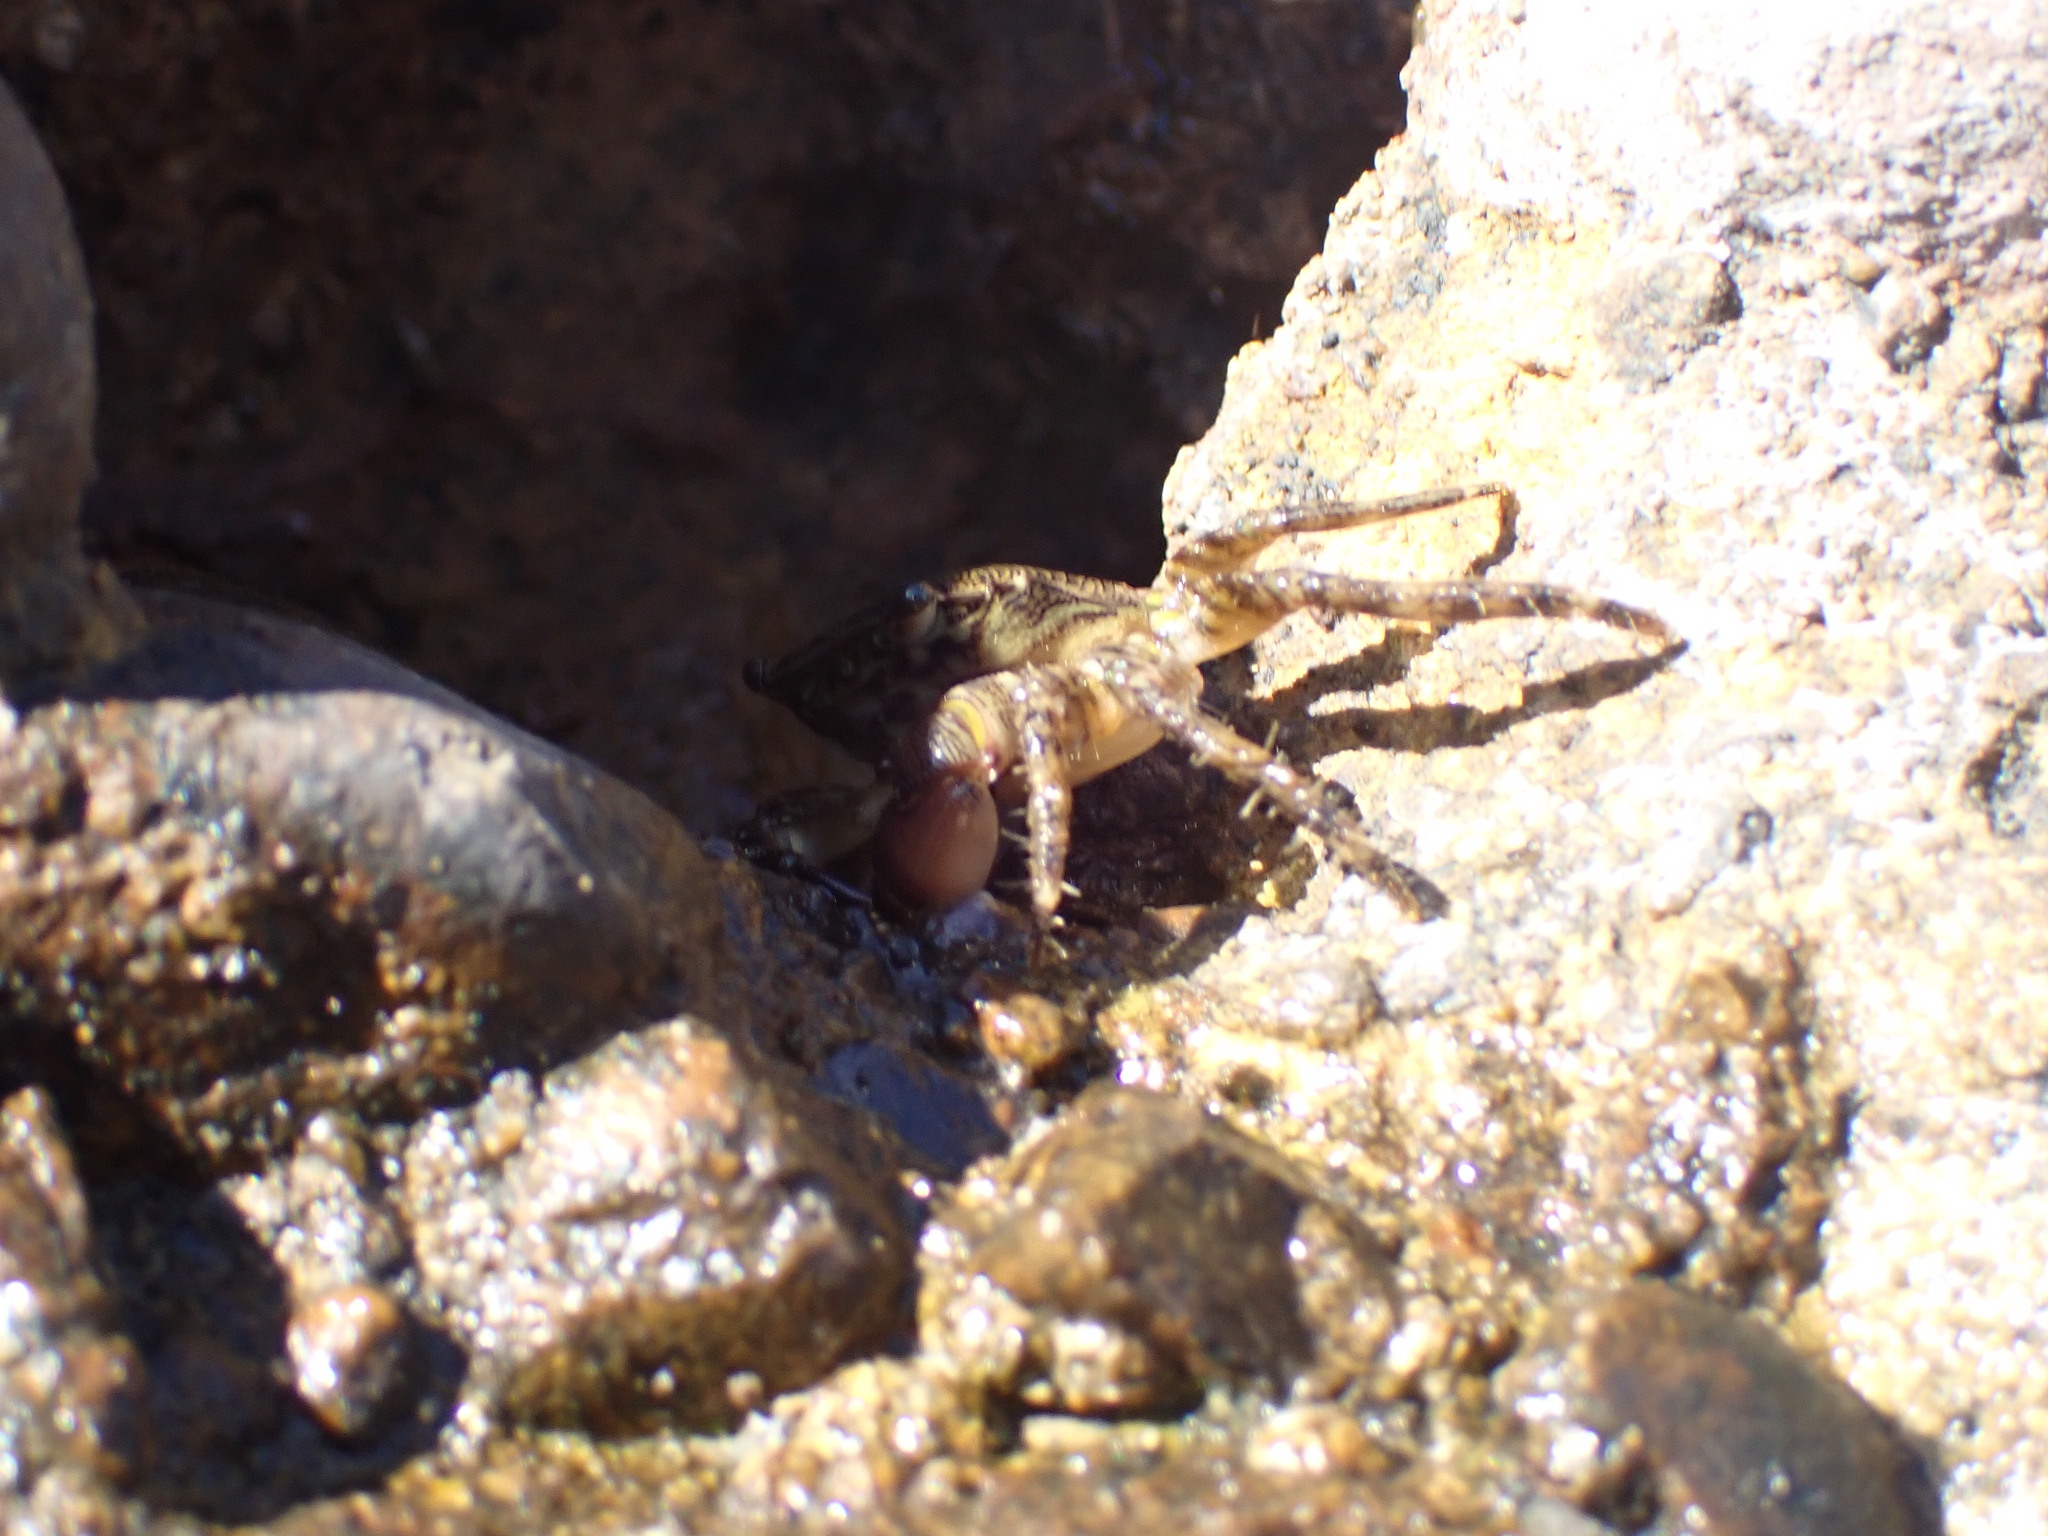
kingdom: Animalia
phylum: Arthropoda
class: Malacostraca
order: Decapoda
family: Grapsidae
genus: Pachygrapsus
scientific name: Pachygrapsus marmoratus
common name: Marbled rock crab
